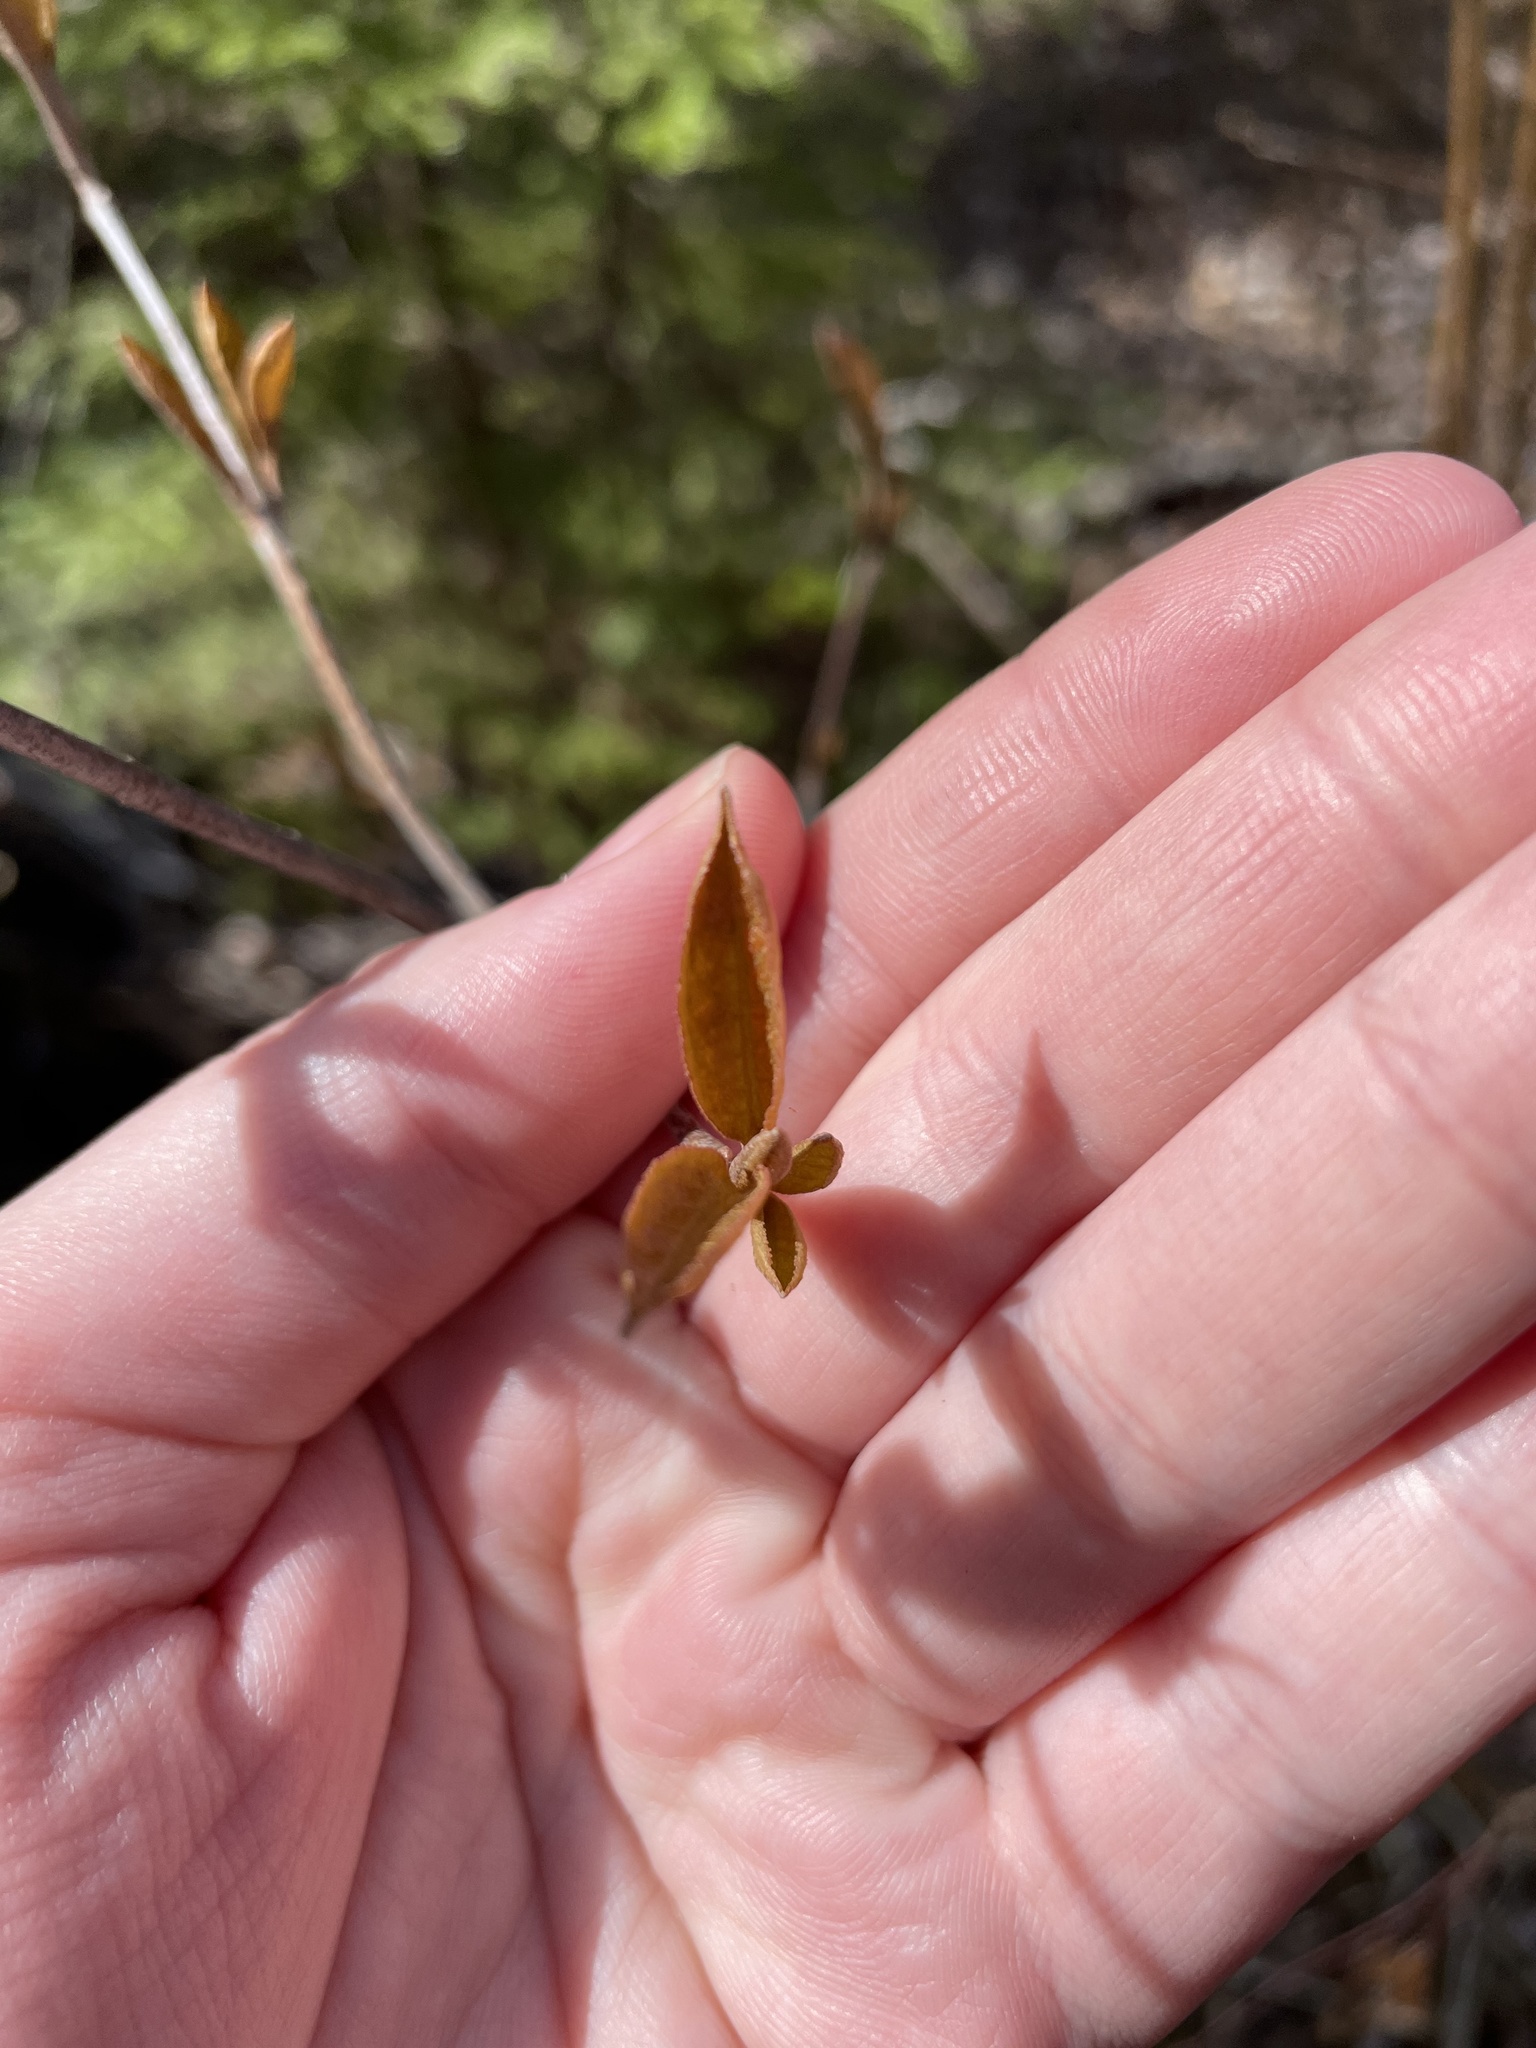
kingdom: Plantae
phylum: Tracheophyta
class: Magnoliopsida
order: Dipsacales
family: Viburnaceae
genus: Viburnum
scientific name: Viburnum cassinoides
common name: Swamp haw
